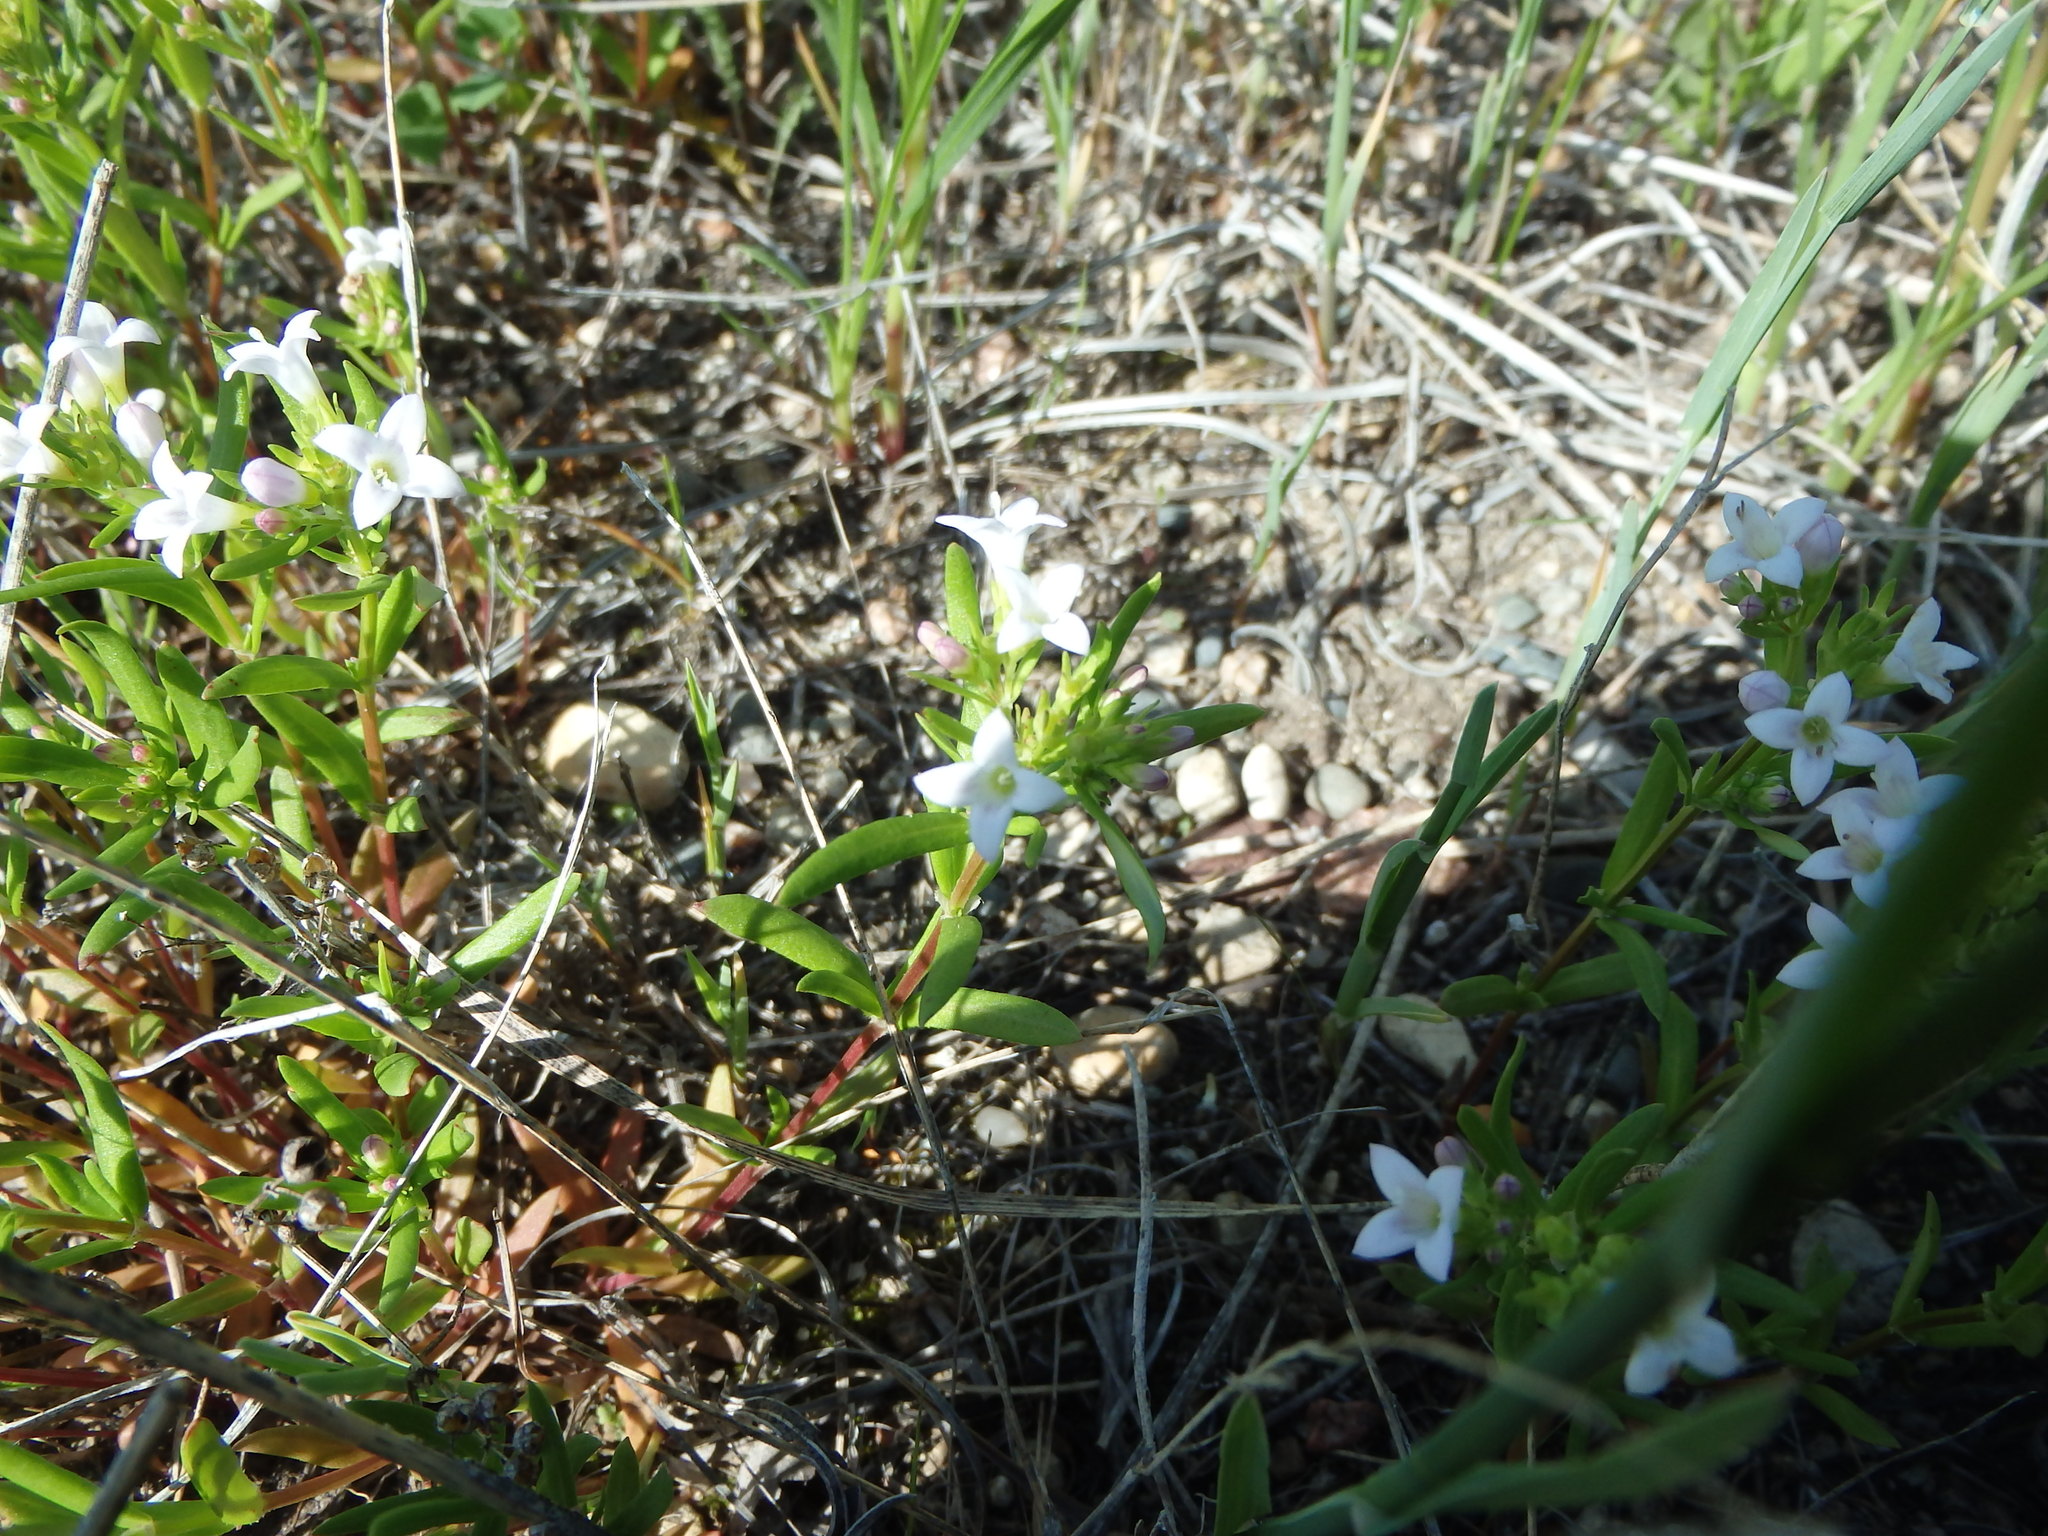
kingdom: Plantae
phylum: Tracheophyta
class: Magnoliopsida
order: Gentianales
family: Rubiaceae
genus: Houstonia
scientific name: Houstonia longifolia
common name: Long-leaved bluets
